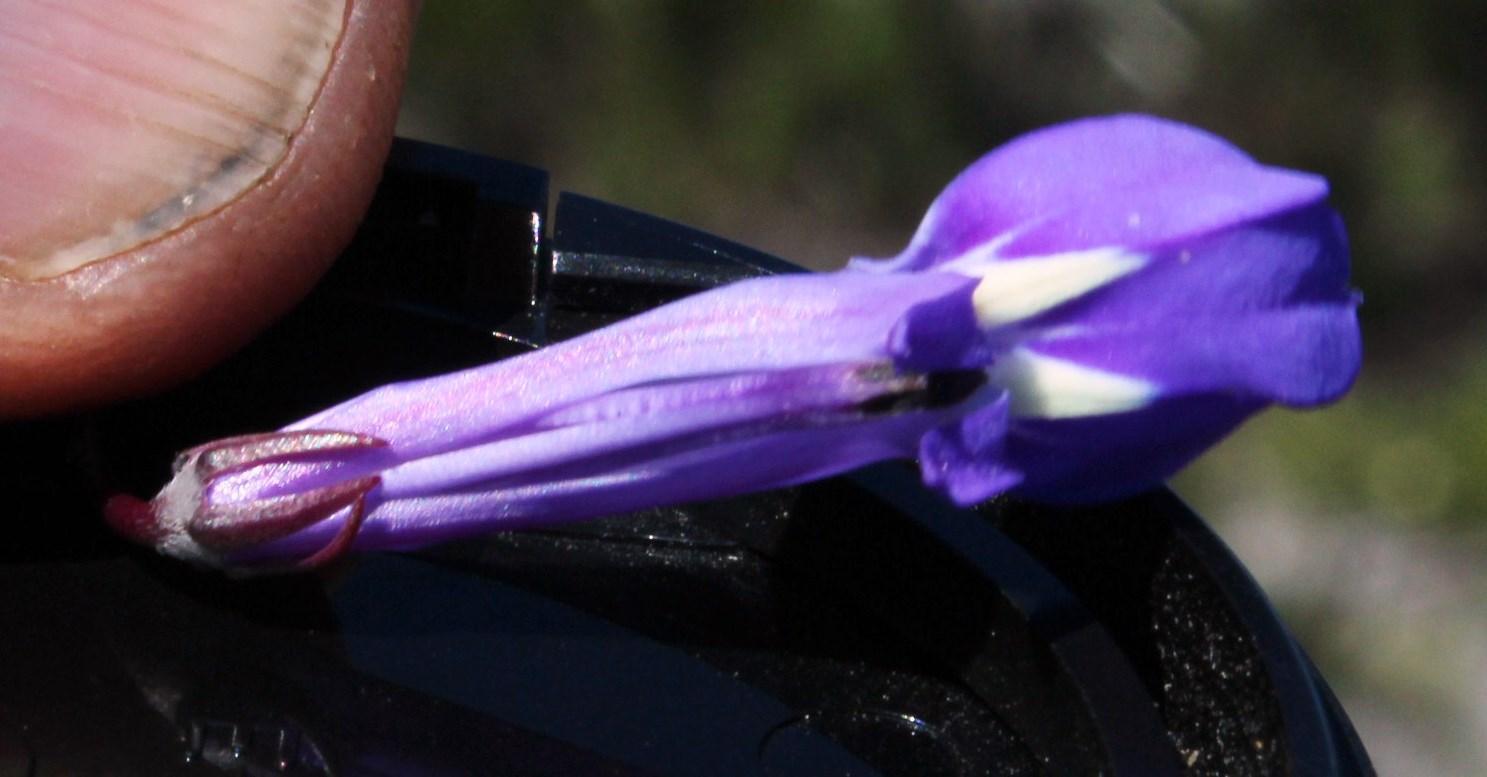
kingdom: Plantae
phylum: Tracheophyta
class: Magnoliopsida
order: Asterales
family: Campanulaceae
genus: Lobelia
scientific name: Lobelia coronopifolia
